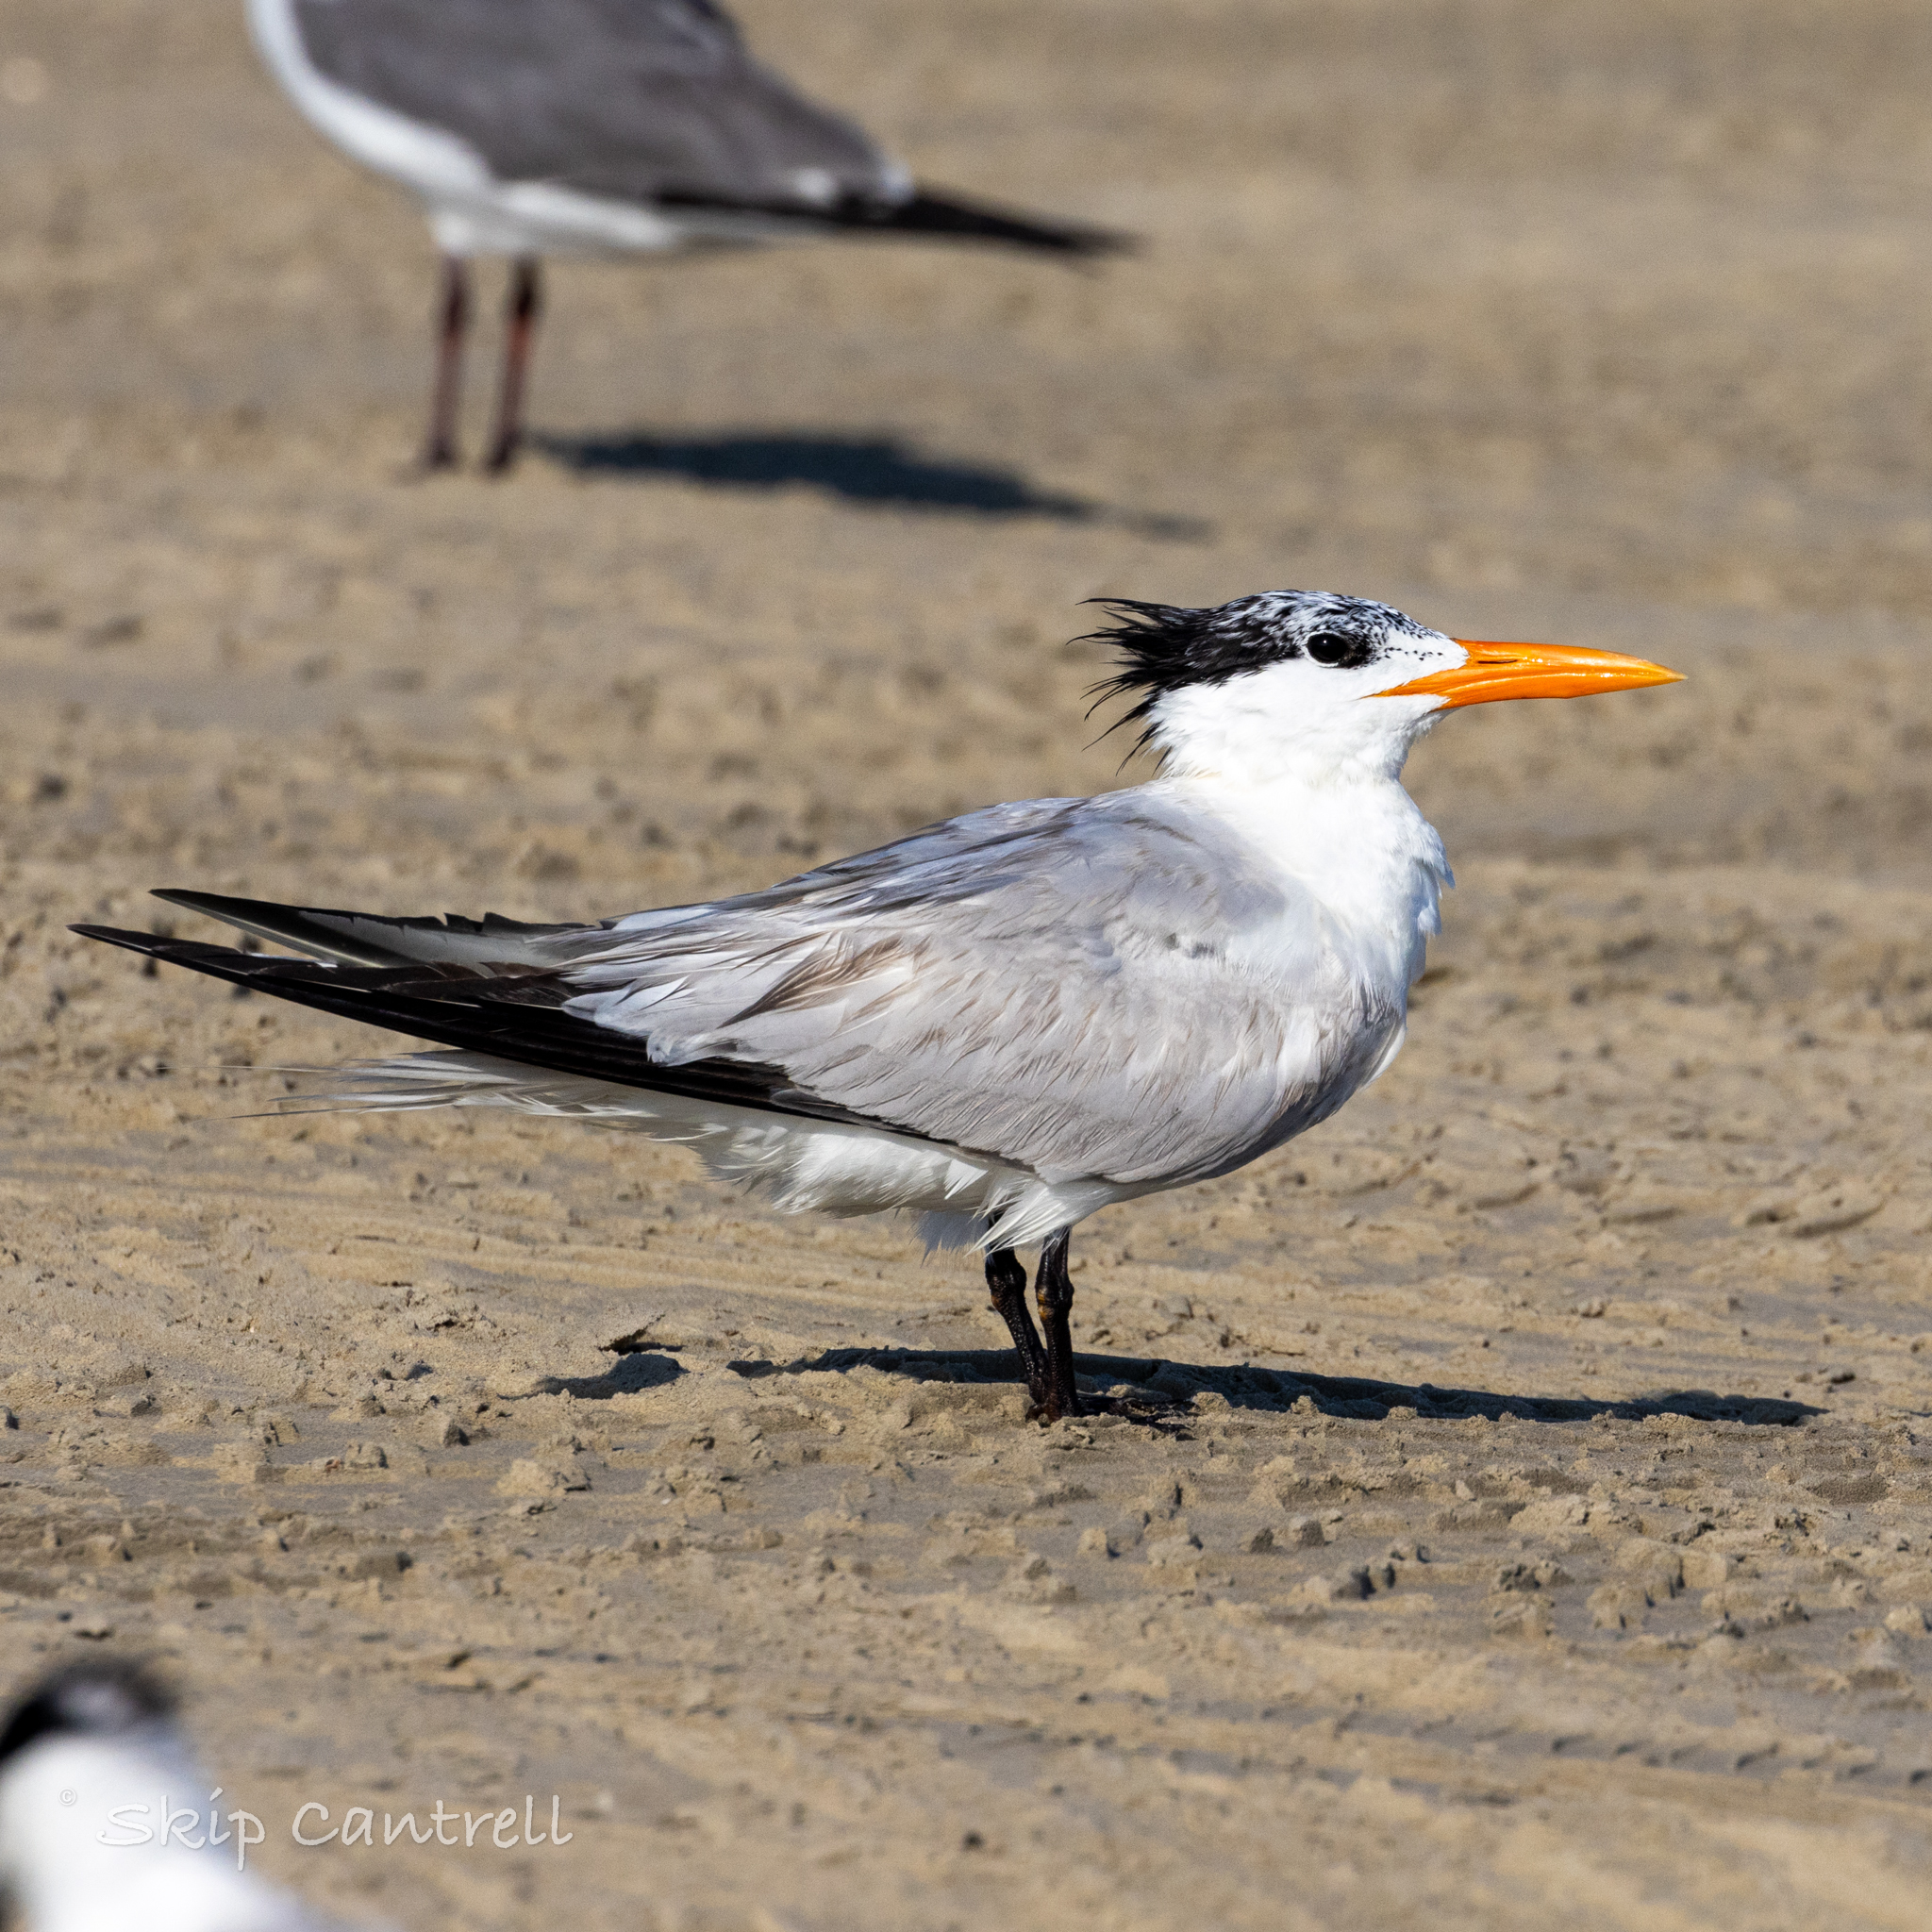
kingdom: Animalia
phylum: Chordata
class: Aves
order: Charadriiformes
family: Laridae
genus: Thalasseus
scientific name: Thalasseus maximus
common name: Royal tern
